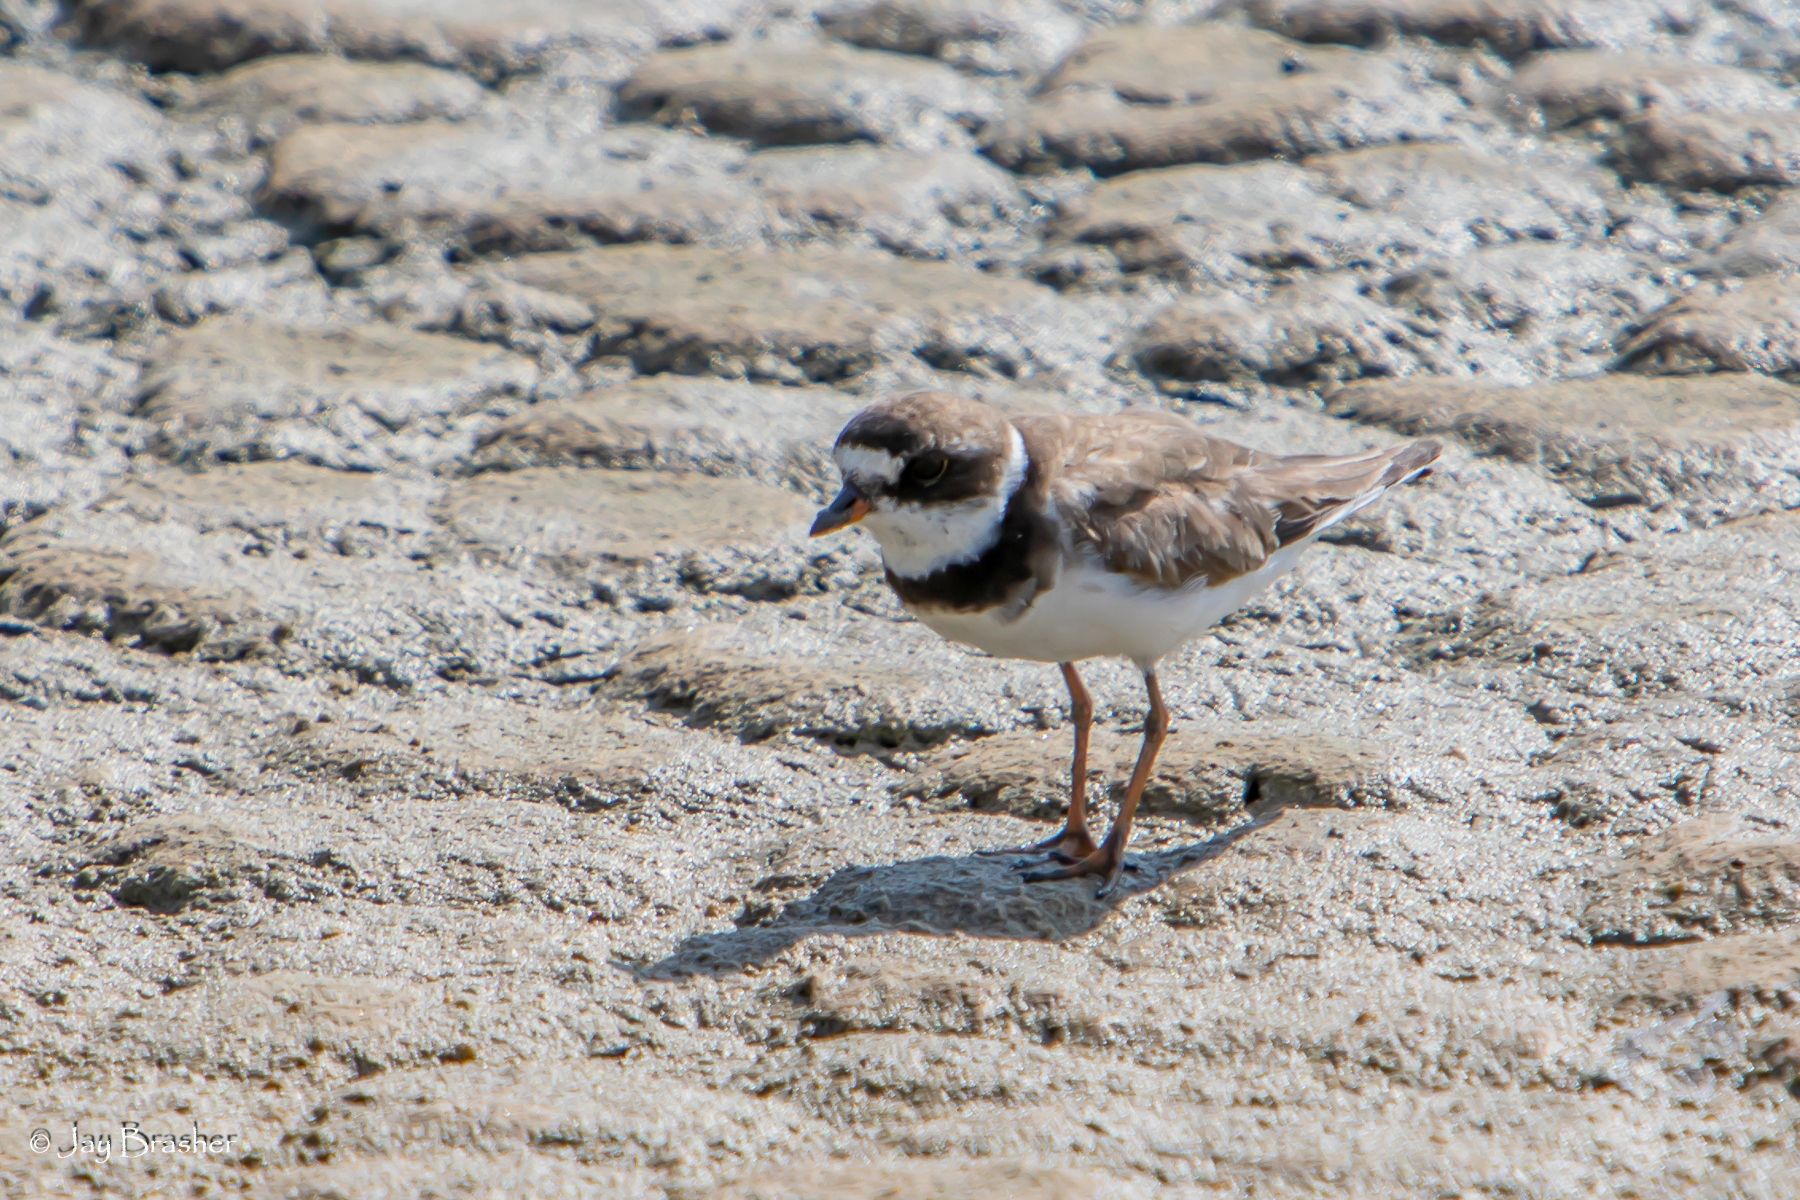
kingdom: Animalia
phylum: Chordata
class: Aves
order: Charadriiformes
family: Charadriidae
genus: Charadrius
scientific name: Charadrius semipalmatus
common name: Semipalmated plover
